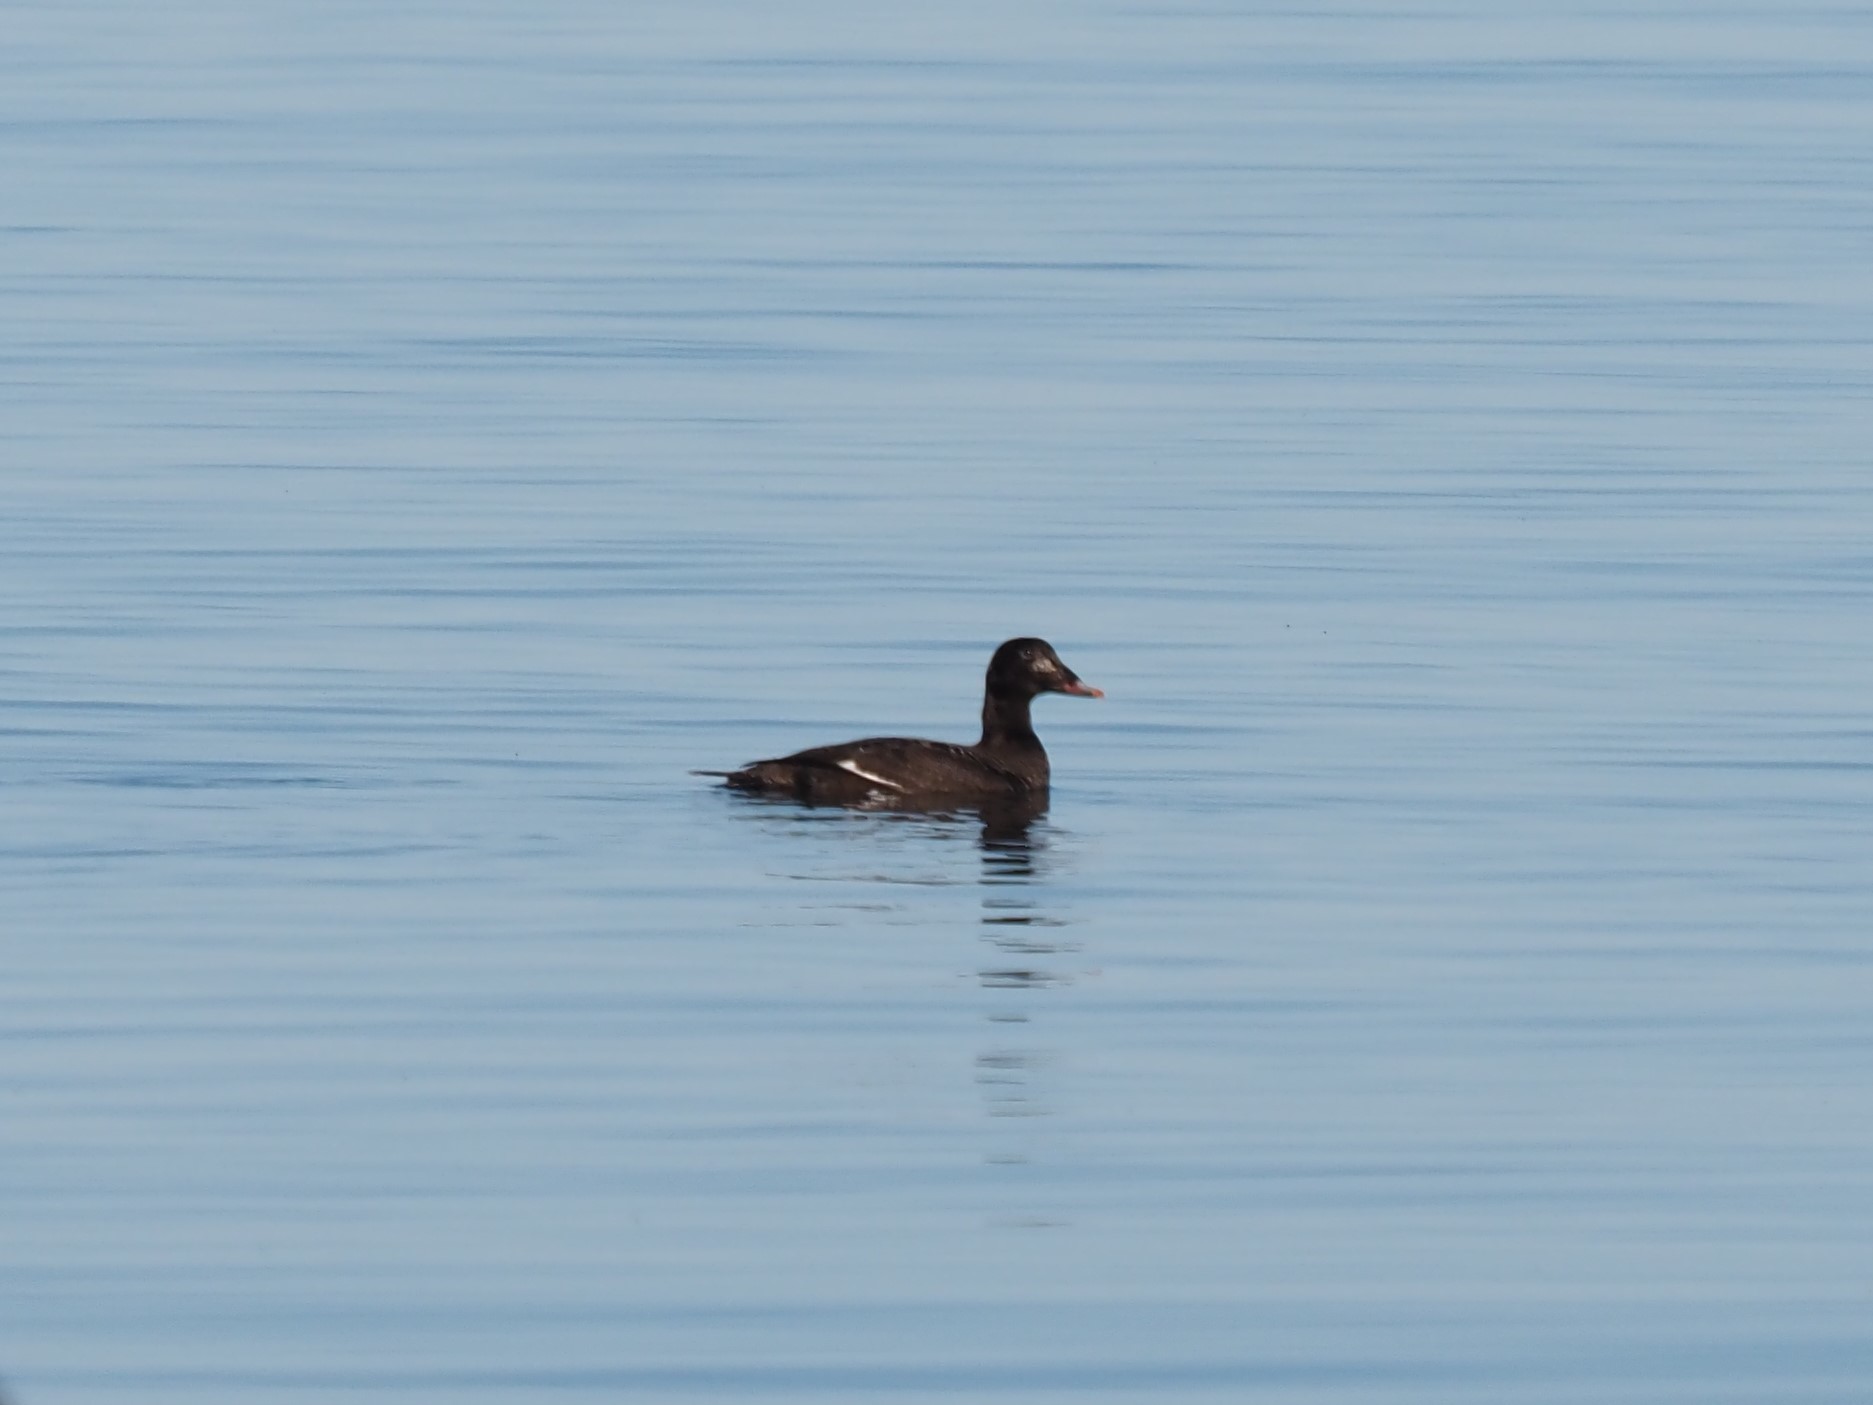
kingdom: Animalia
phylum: Chordata
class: Aves
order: Anseriformes
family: Anatidae
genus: Melanitta
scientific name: Melanitta deglandi
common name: White-winged scoter
